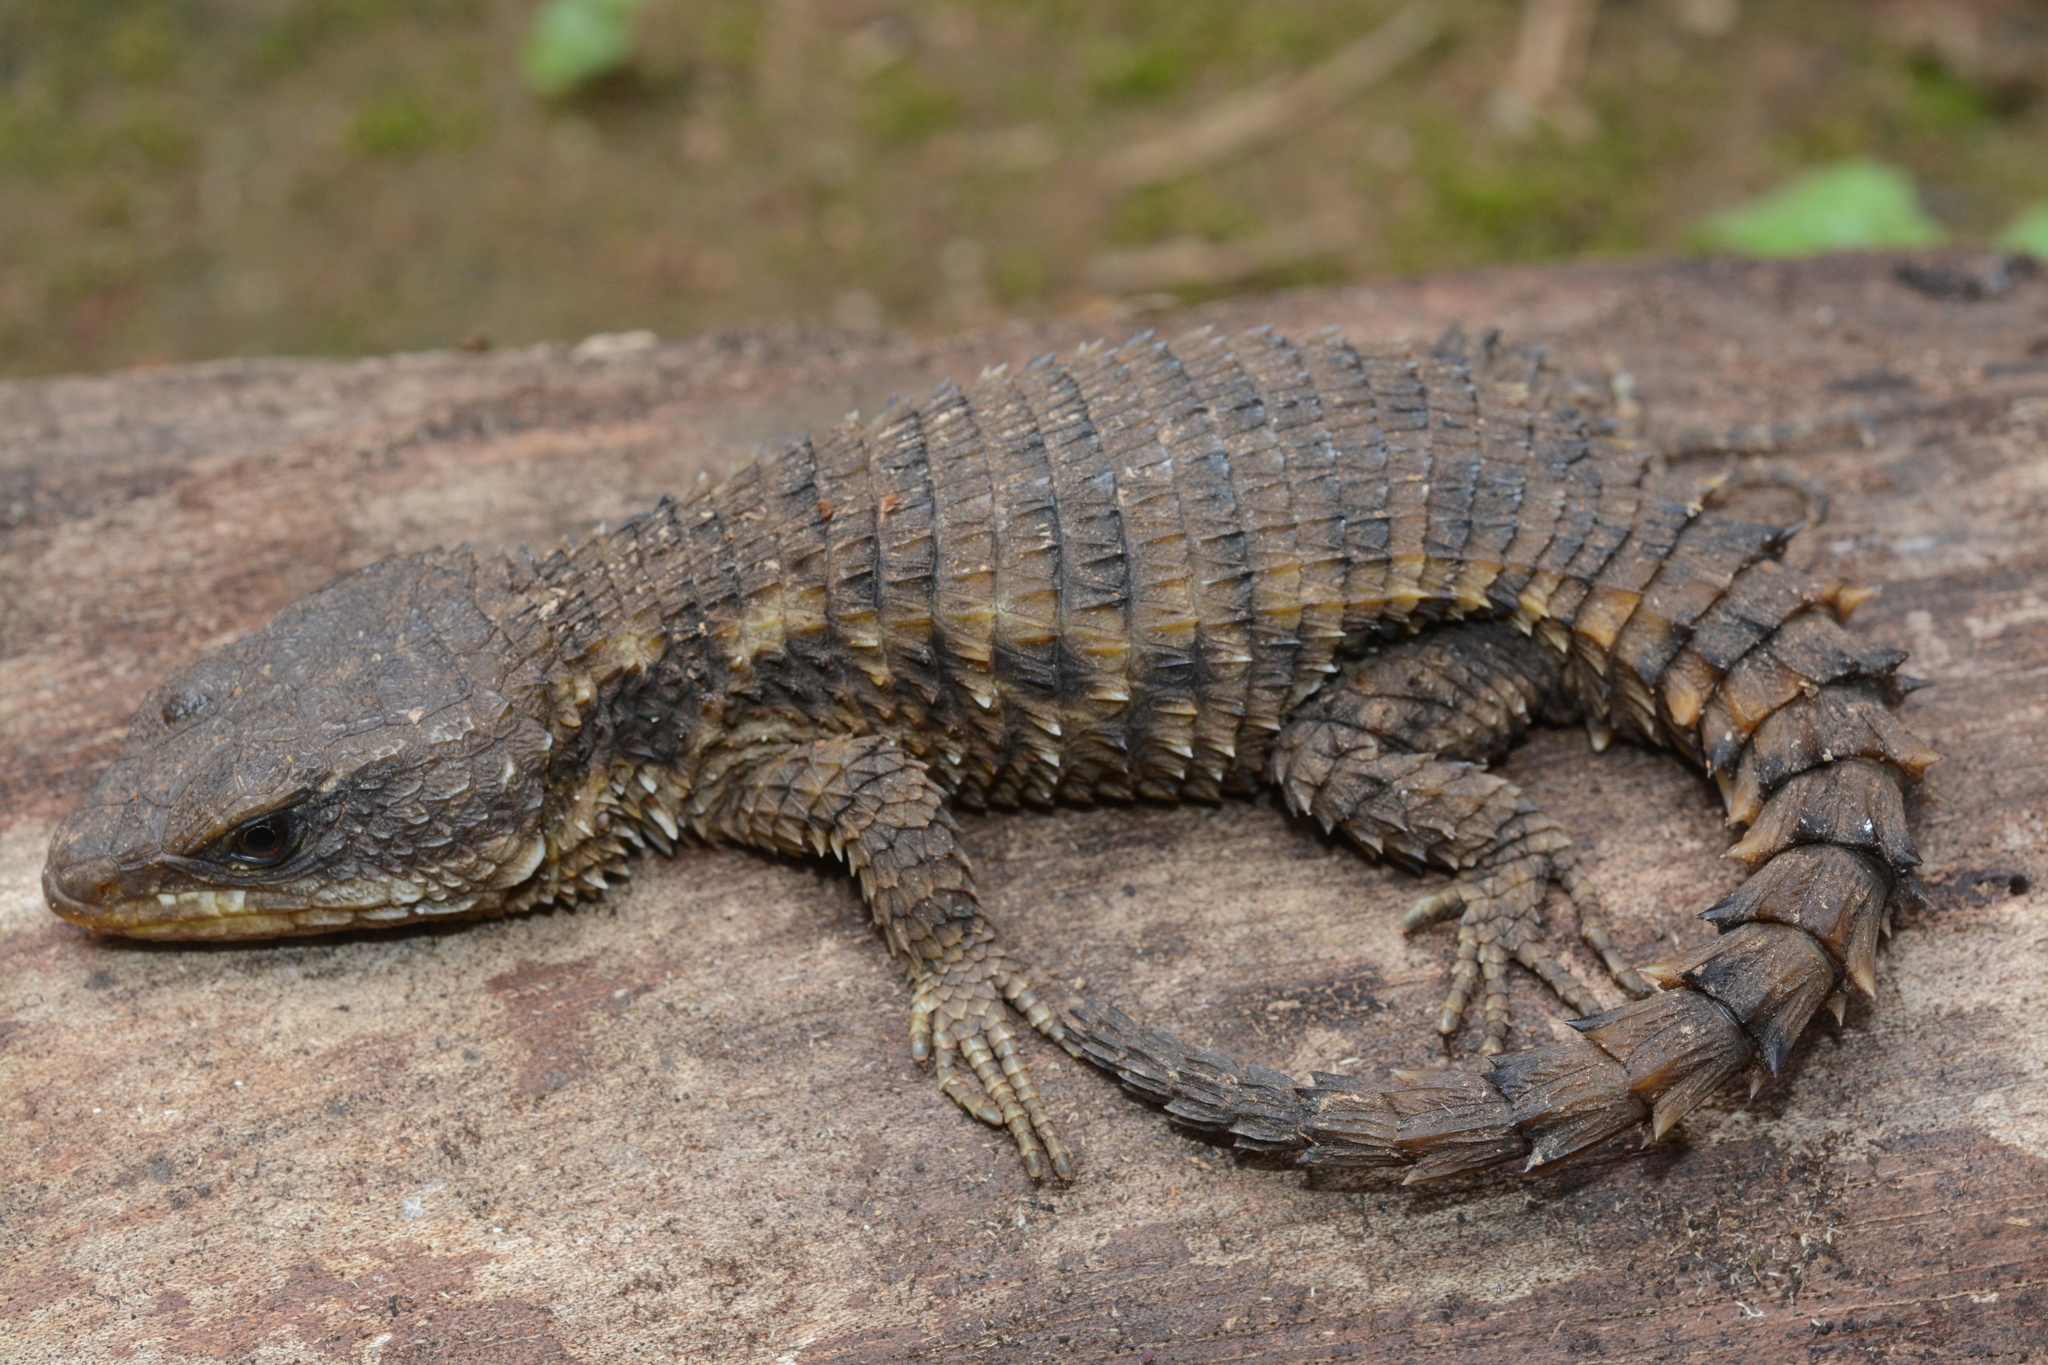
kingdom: Animalia
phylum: Chordata
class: Squamata
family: Cordylidae
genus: Cordylus
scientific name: Cordylus tropidosternum
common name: Tropical girdled lizard
